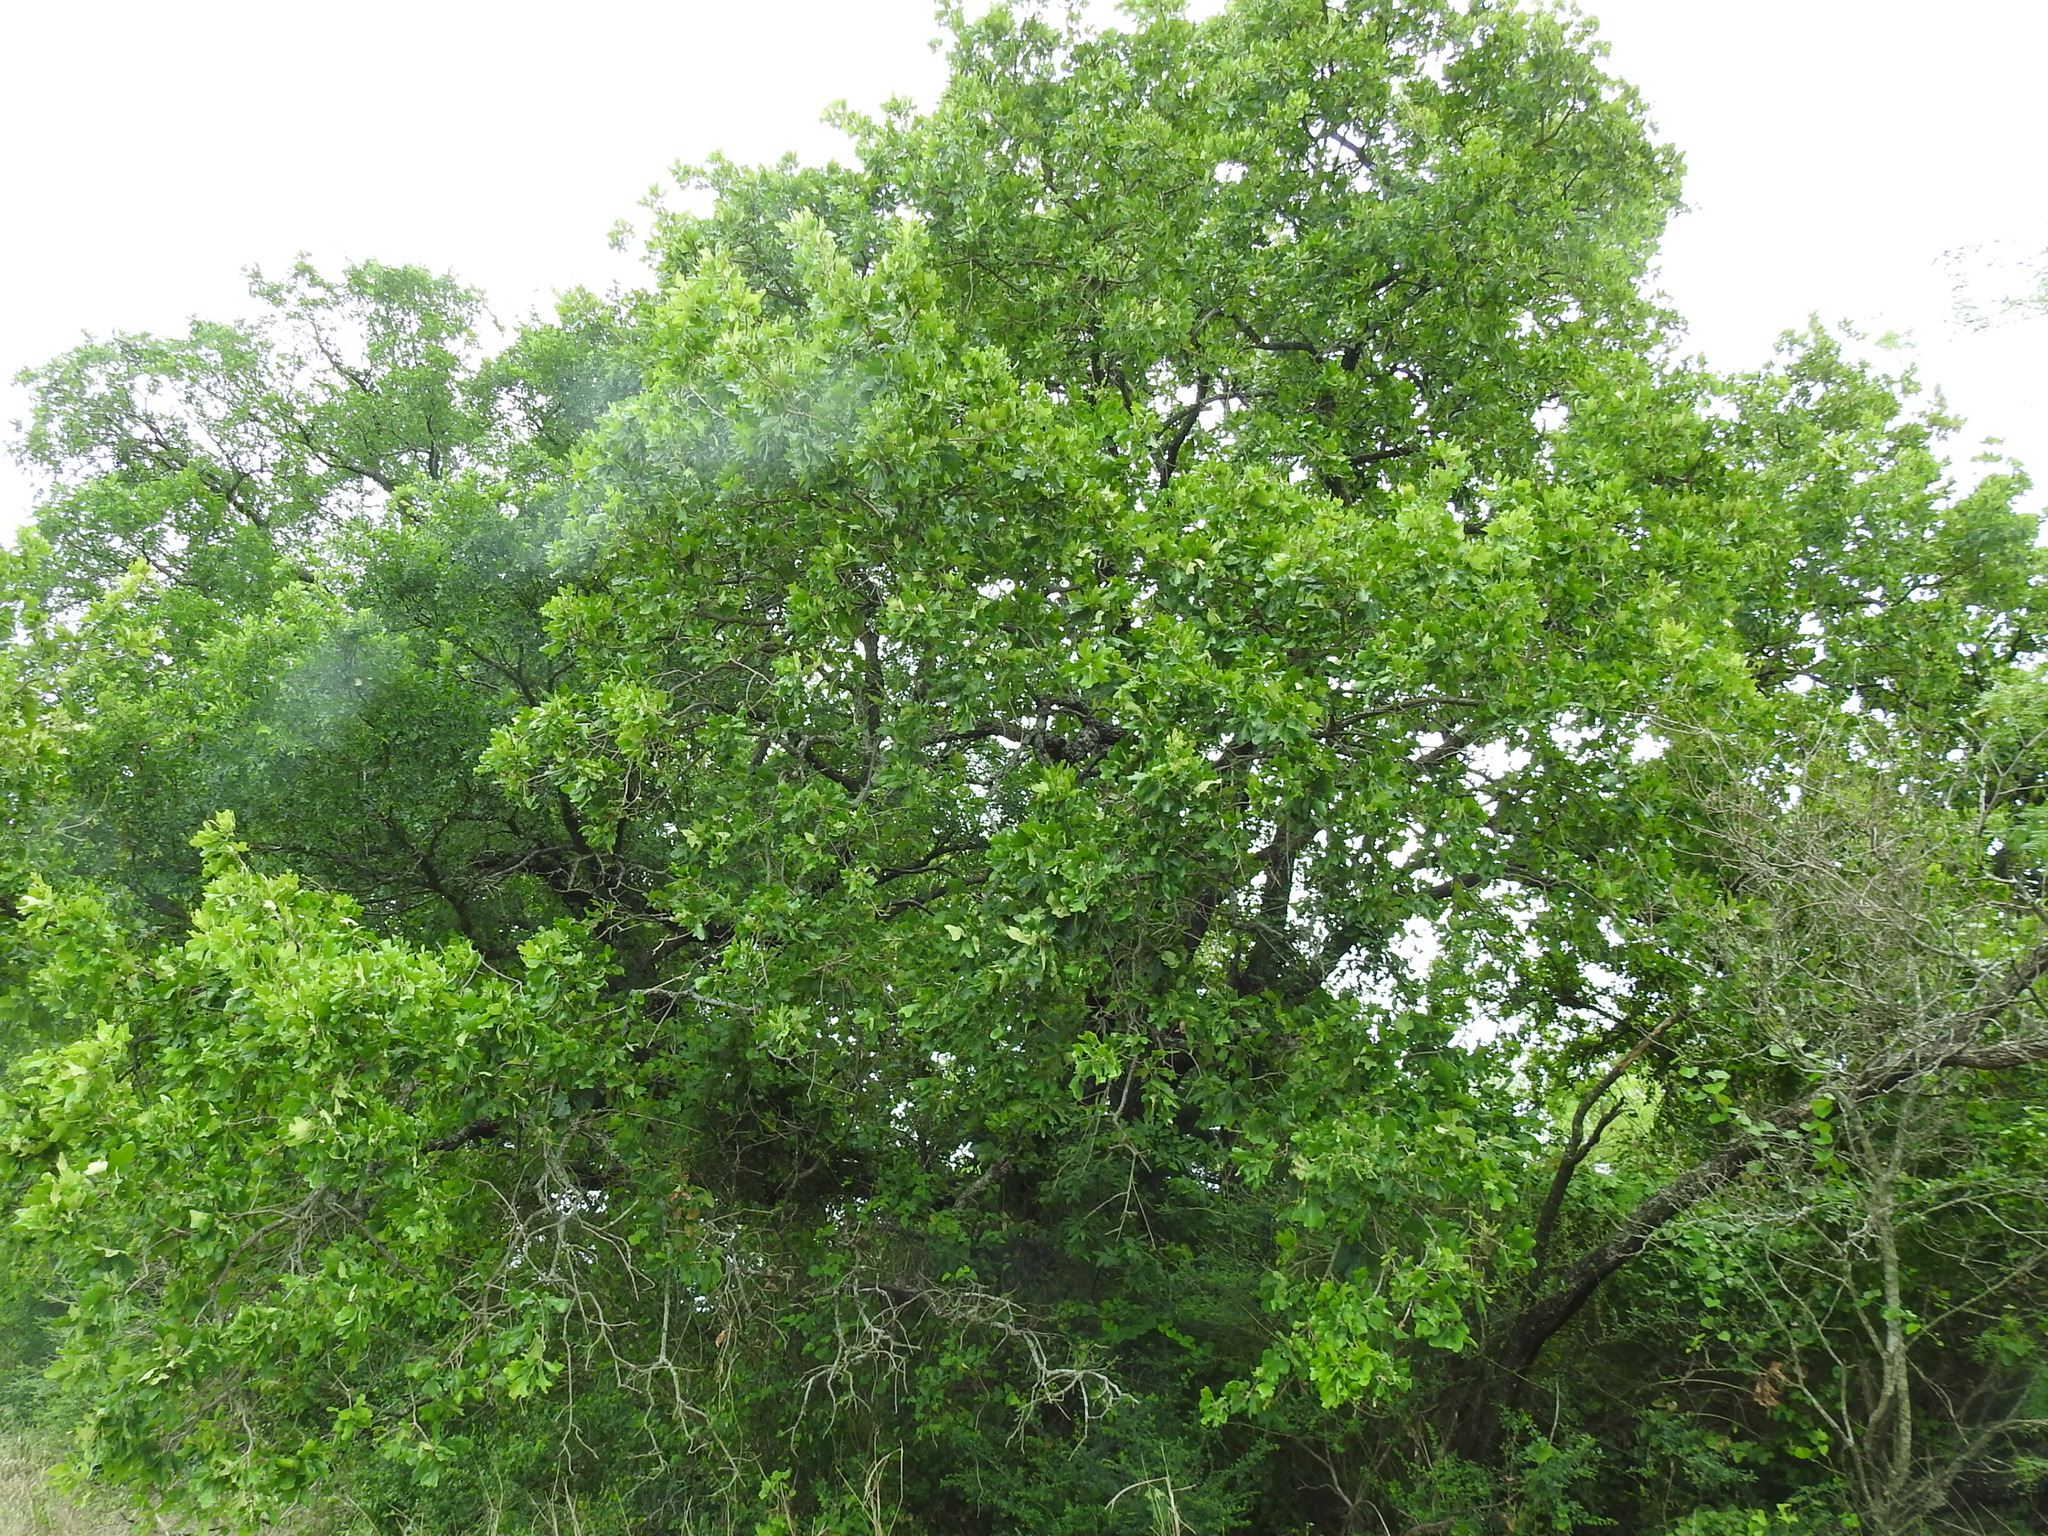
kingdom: Plantae
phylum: Tracheophyta
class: Magnoliopsida
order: Fagales
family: Fagaceae
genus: Quercus
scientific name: Quercus stellata
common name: Post oak
